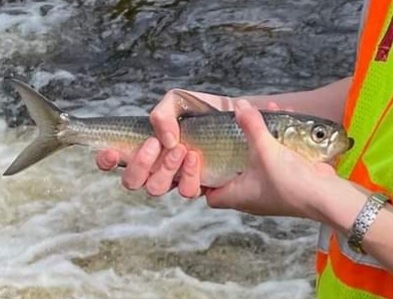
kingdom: Animalia
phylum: Chordata
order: Clupeiformes
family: Clupeidae
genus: Alosa
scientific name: Alosa pseudoharengus
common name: Alewife
